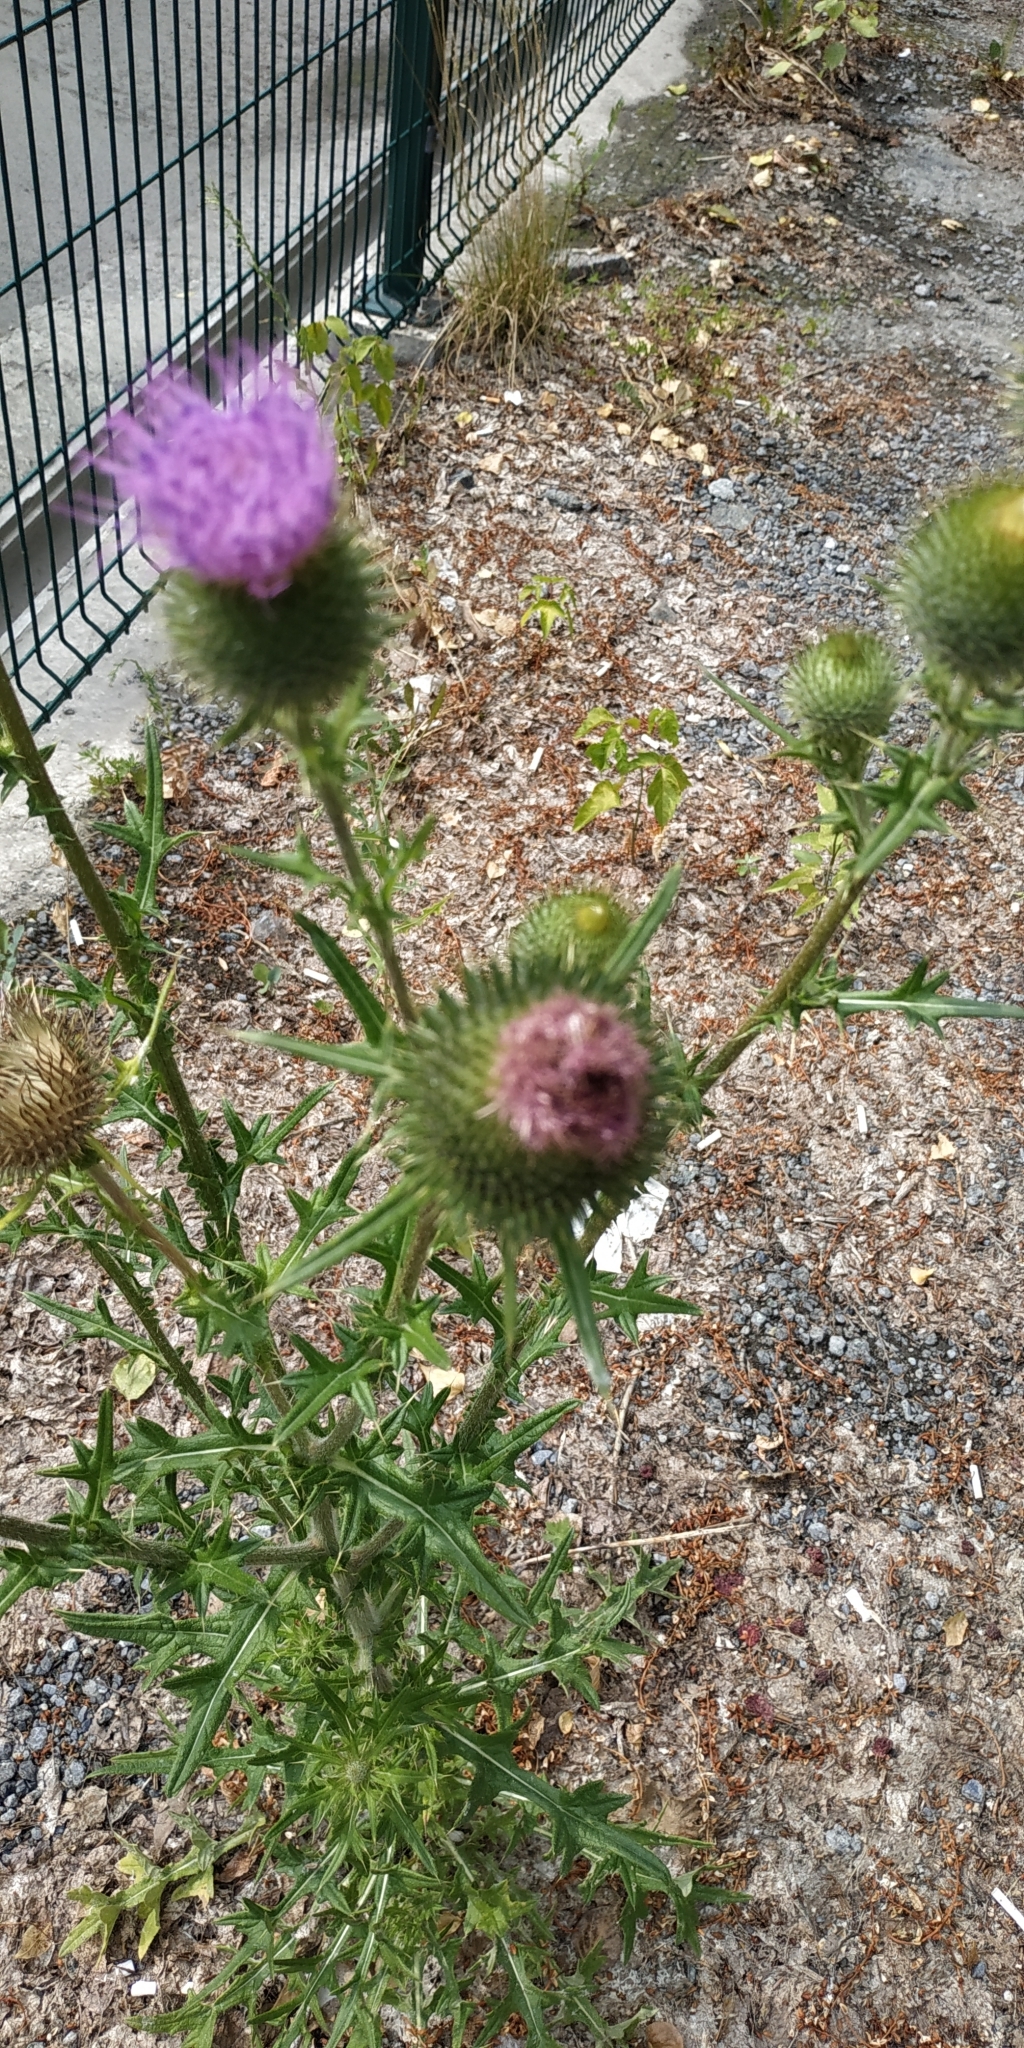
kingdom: Plantae
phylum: Tracheophyta
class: Magnoliopsida
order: Asterales
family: Asteraceae
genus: Cirsium
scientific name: Cirsium vulgare
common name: Bull thistle
